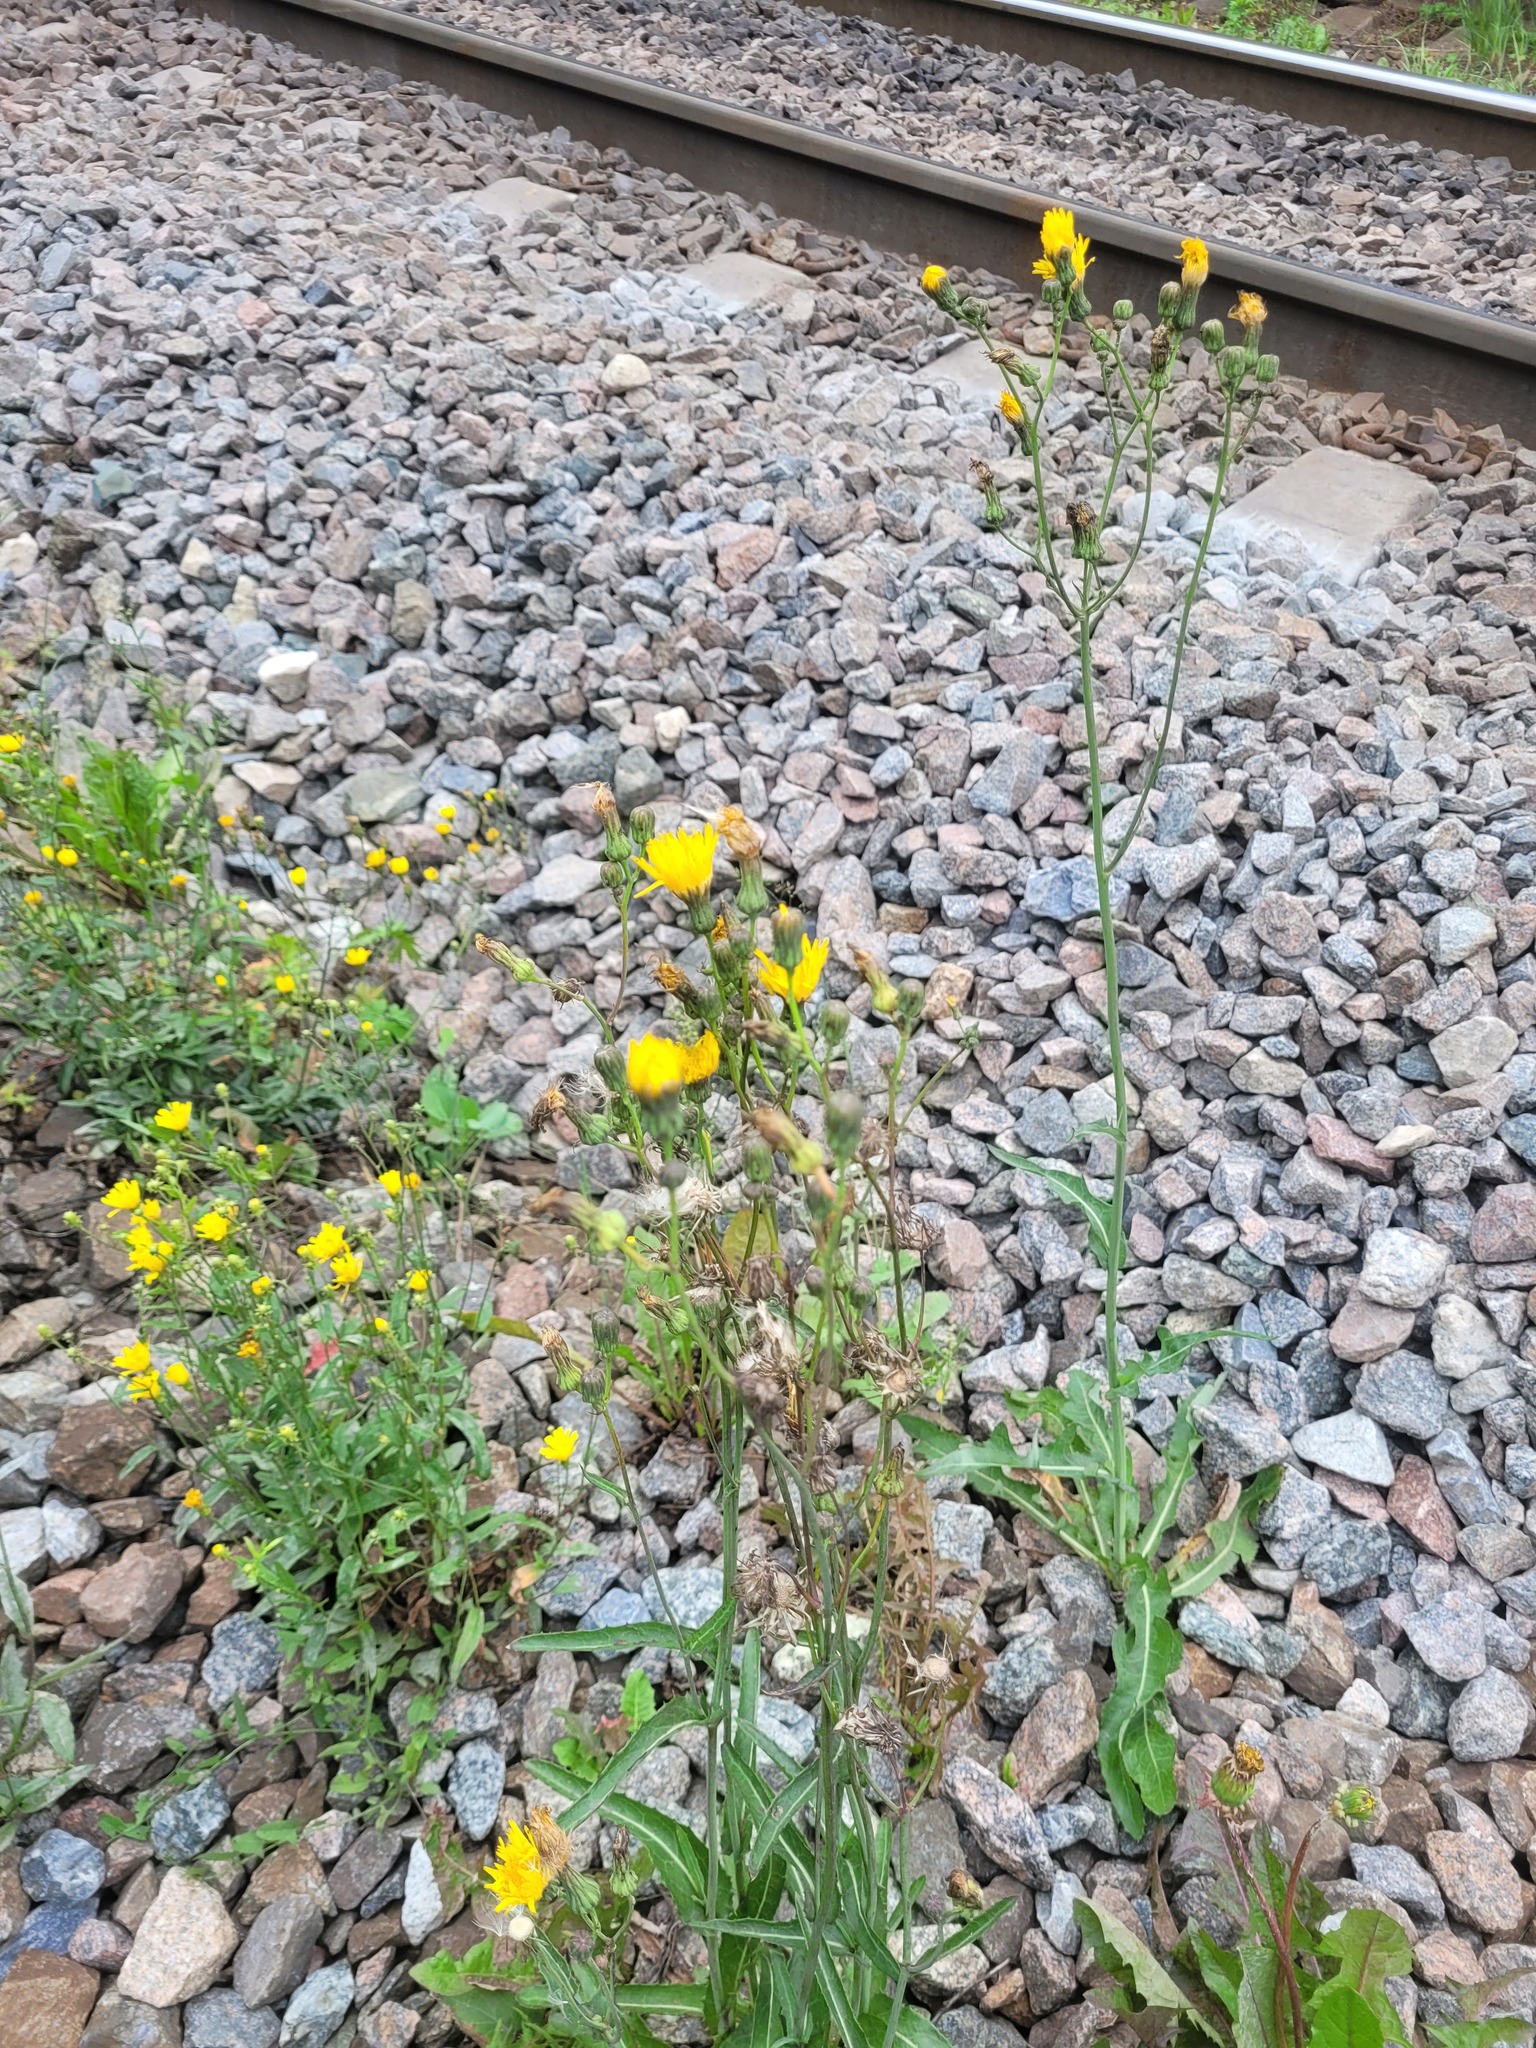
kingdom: Plantae
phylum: Tracheophyta
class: Magnoliopsida
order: Asterales
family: Asteraceae
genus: Sonchus
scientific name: Sonchus arvensis
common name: Perennial sow-thistle
